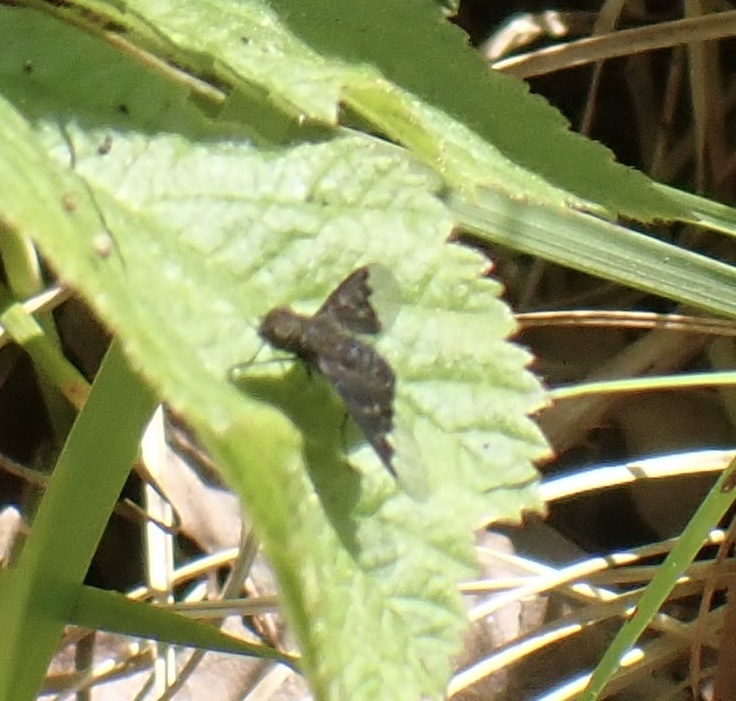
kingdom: Animalia
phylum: Arthropoda
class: Insecta
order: Diptera
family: Bombyliidae
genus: Hemipenthes
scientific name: Hemipenthes morio
